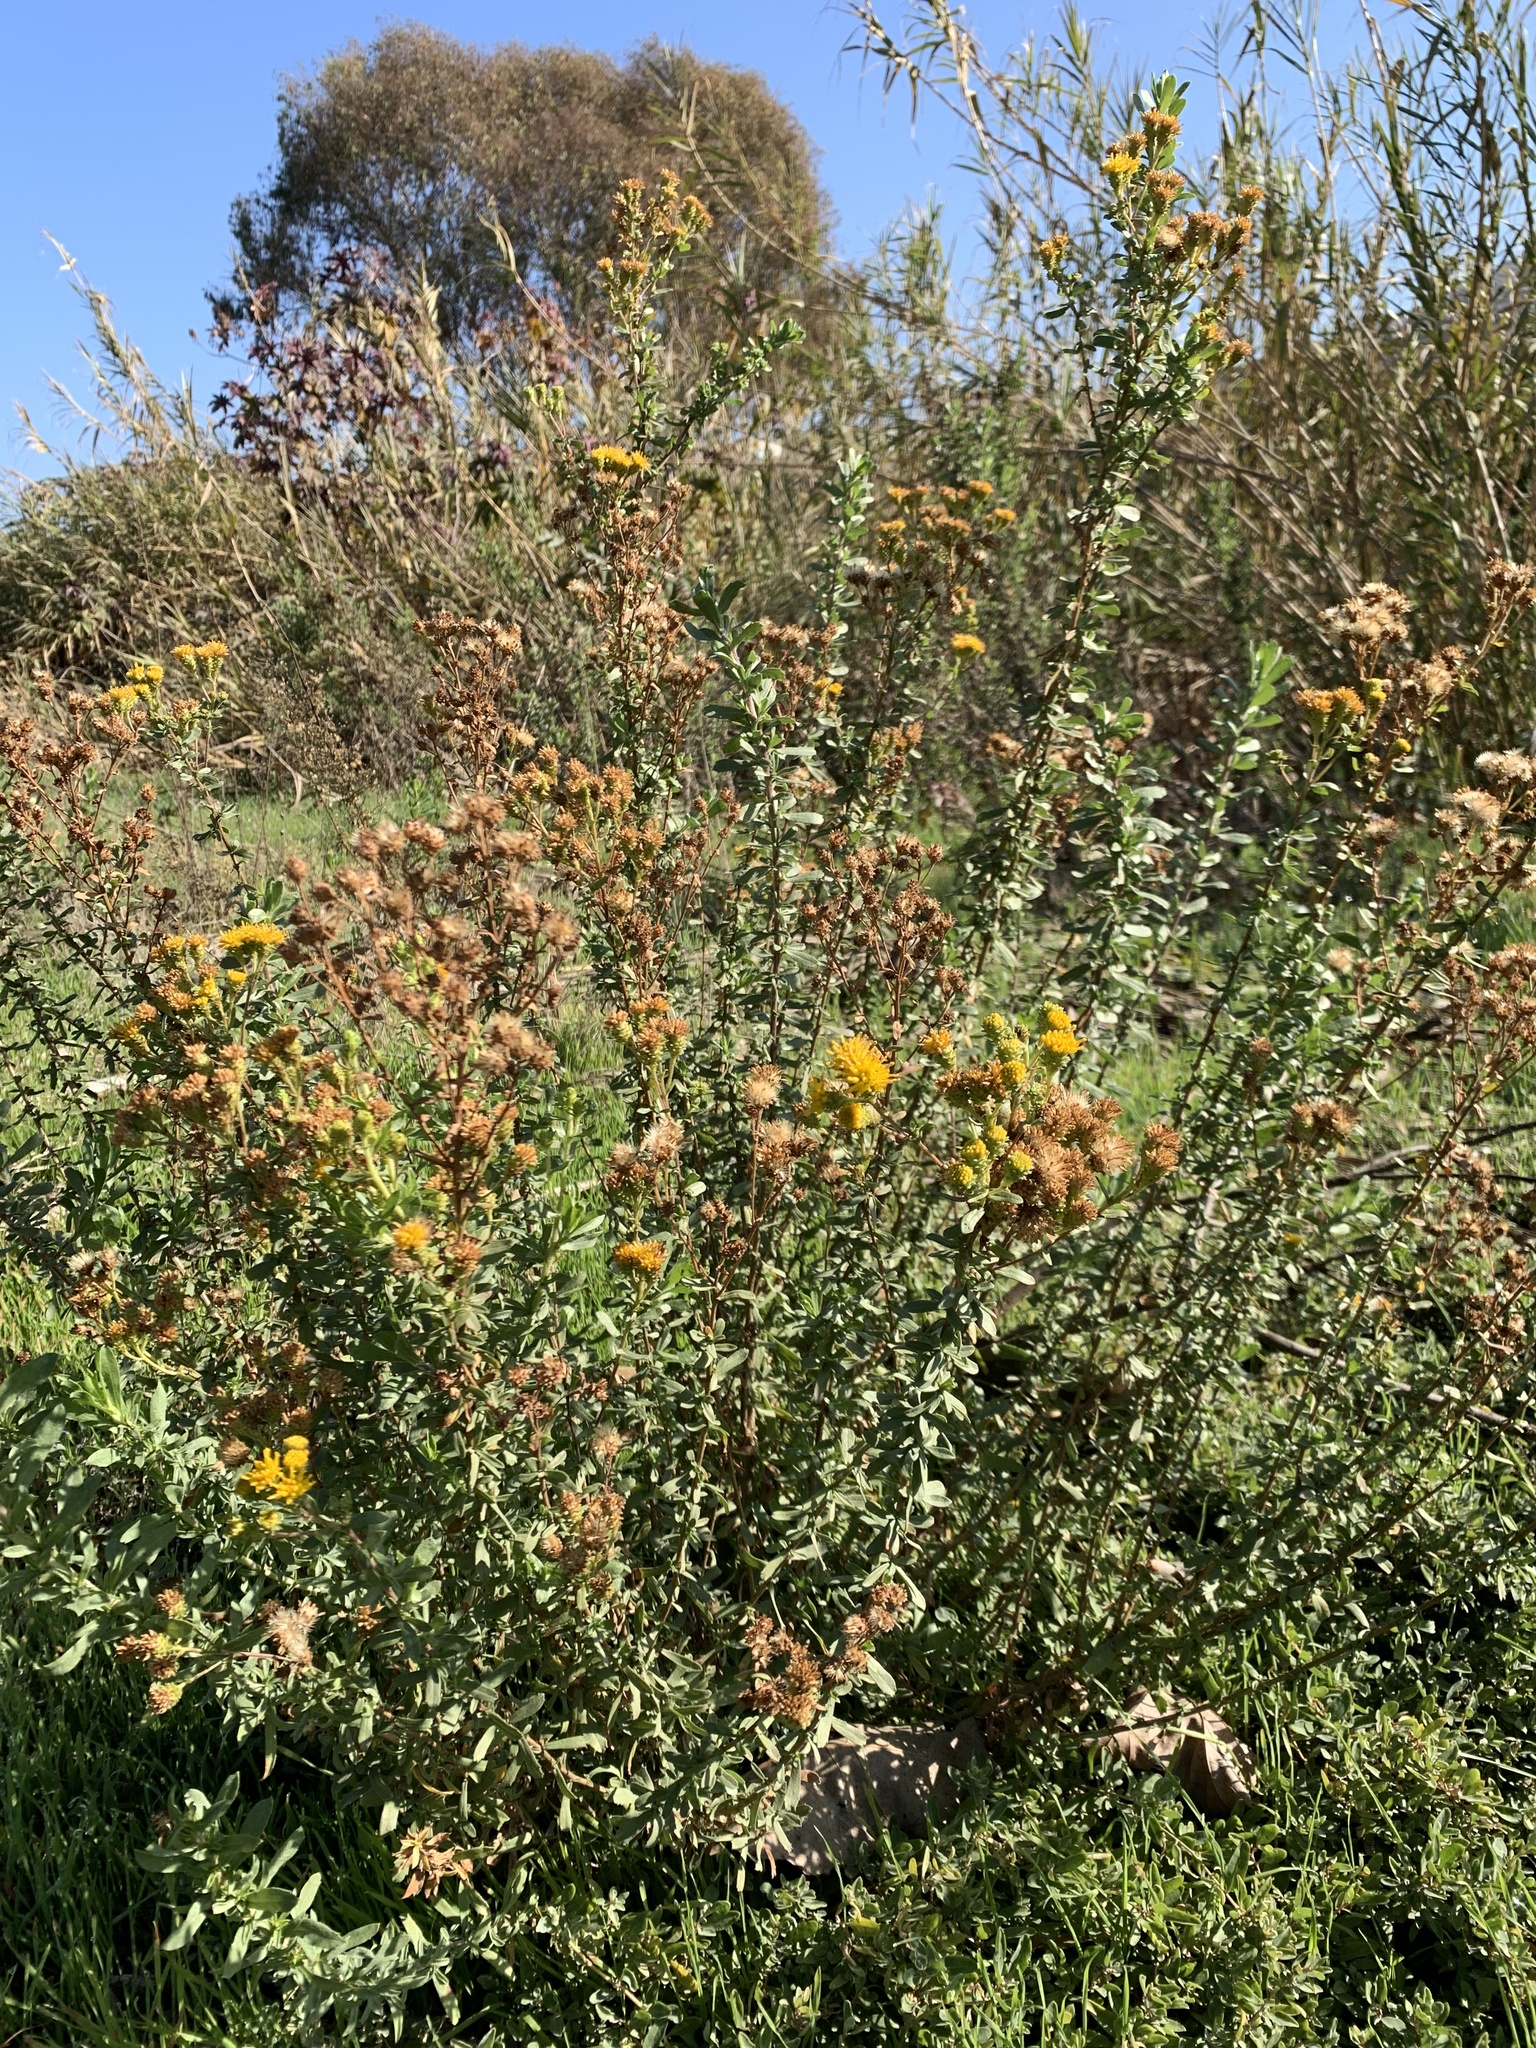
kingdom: Plantae
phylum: Tracheophyta
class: Magnoliopsida
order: Asterales
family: Asteraceae
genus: Isocoma
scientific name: Isocoma menziesii
